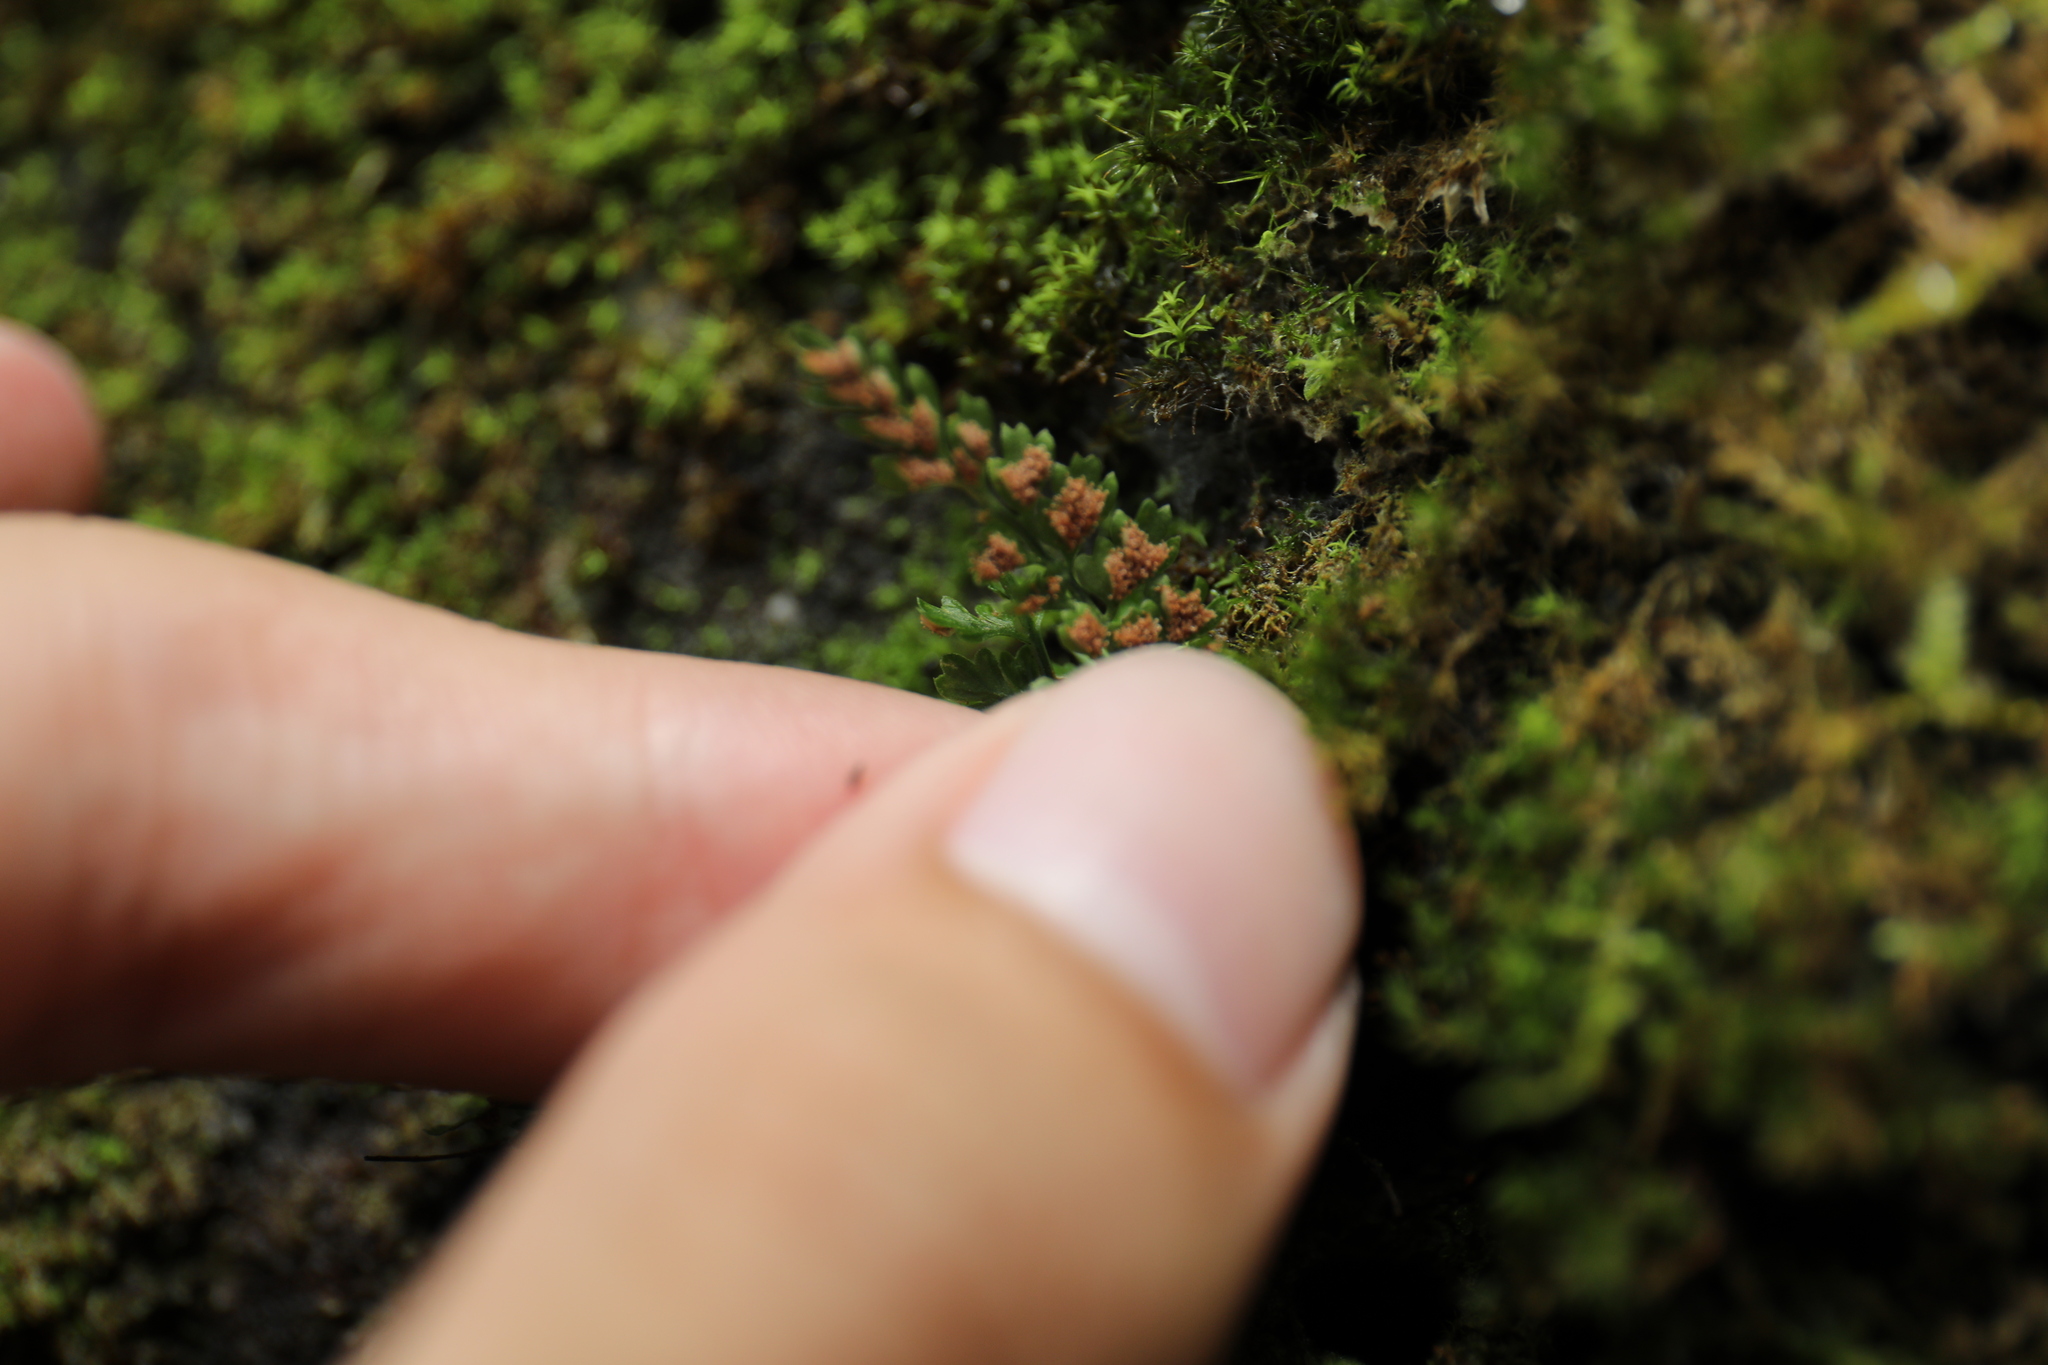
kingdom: Plantae
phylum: Tracheophyta
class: Polypodiopsida
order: Polypodiales
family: Aspleniaceae
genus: Asplenium
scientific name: Asplenium laciniatum
